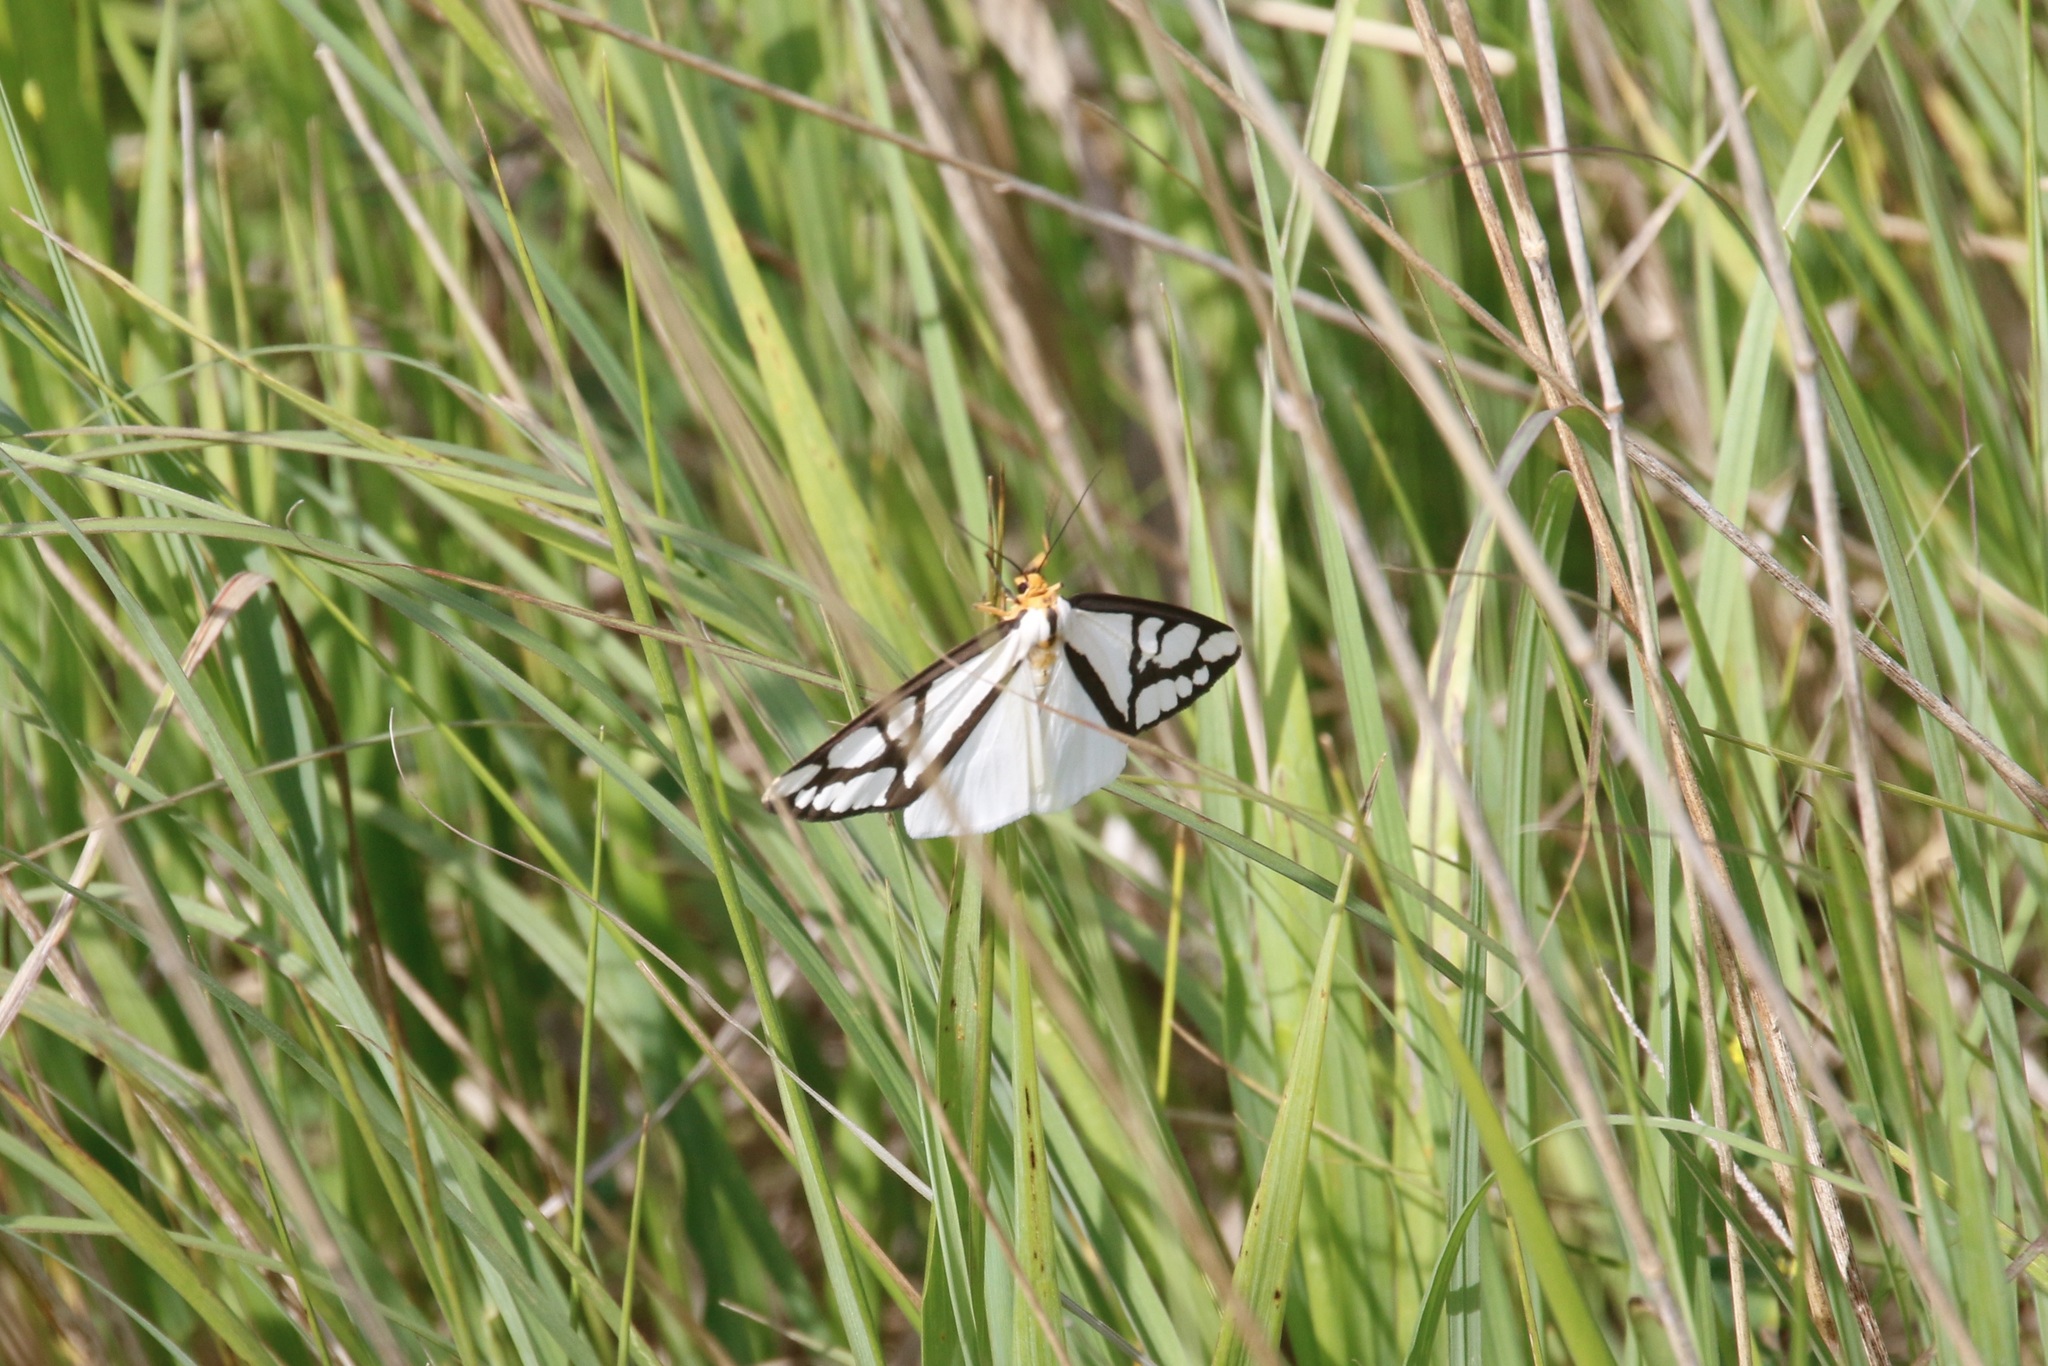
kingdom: Animalia
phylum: Arthropoda
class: Insecta
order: Lepidoptera
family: Erebidae
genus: Haploa
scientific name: Haploa reversa
